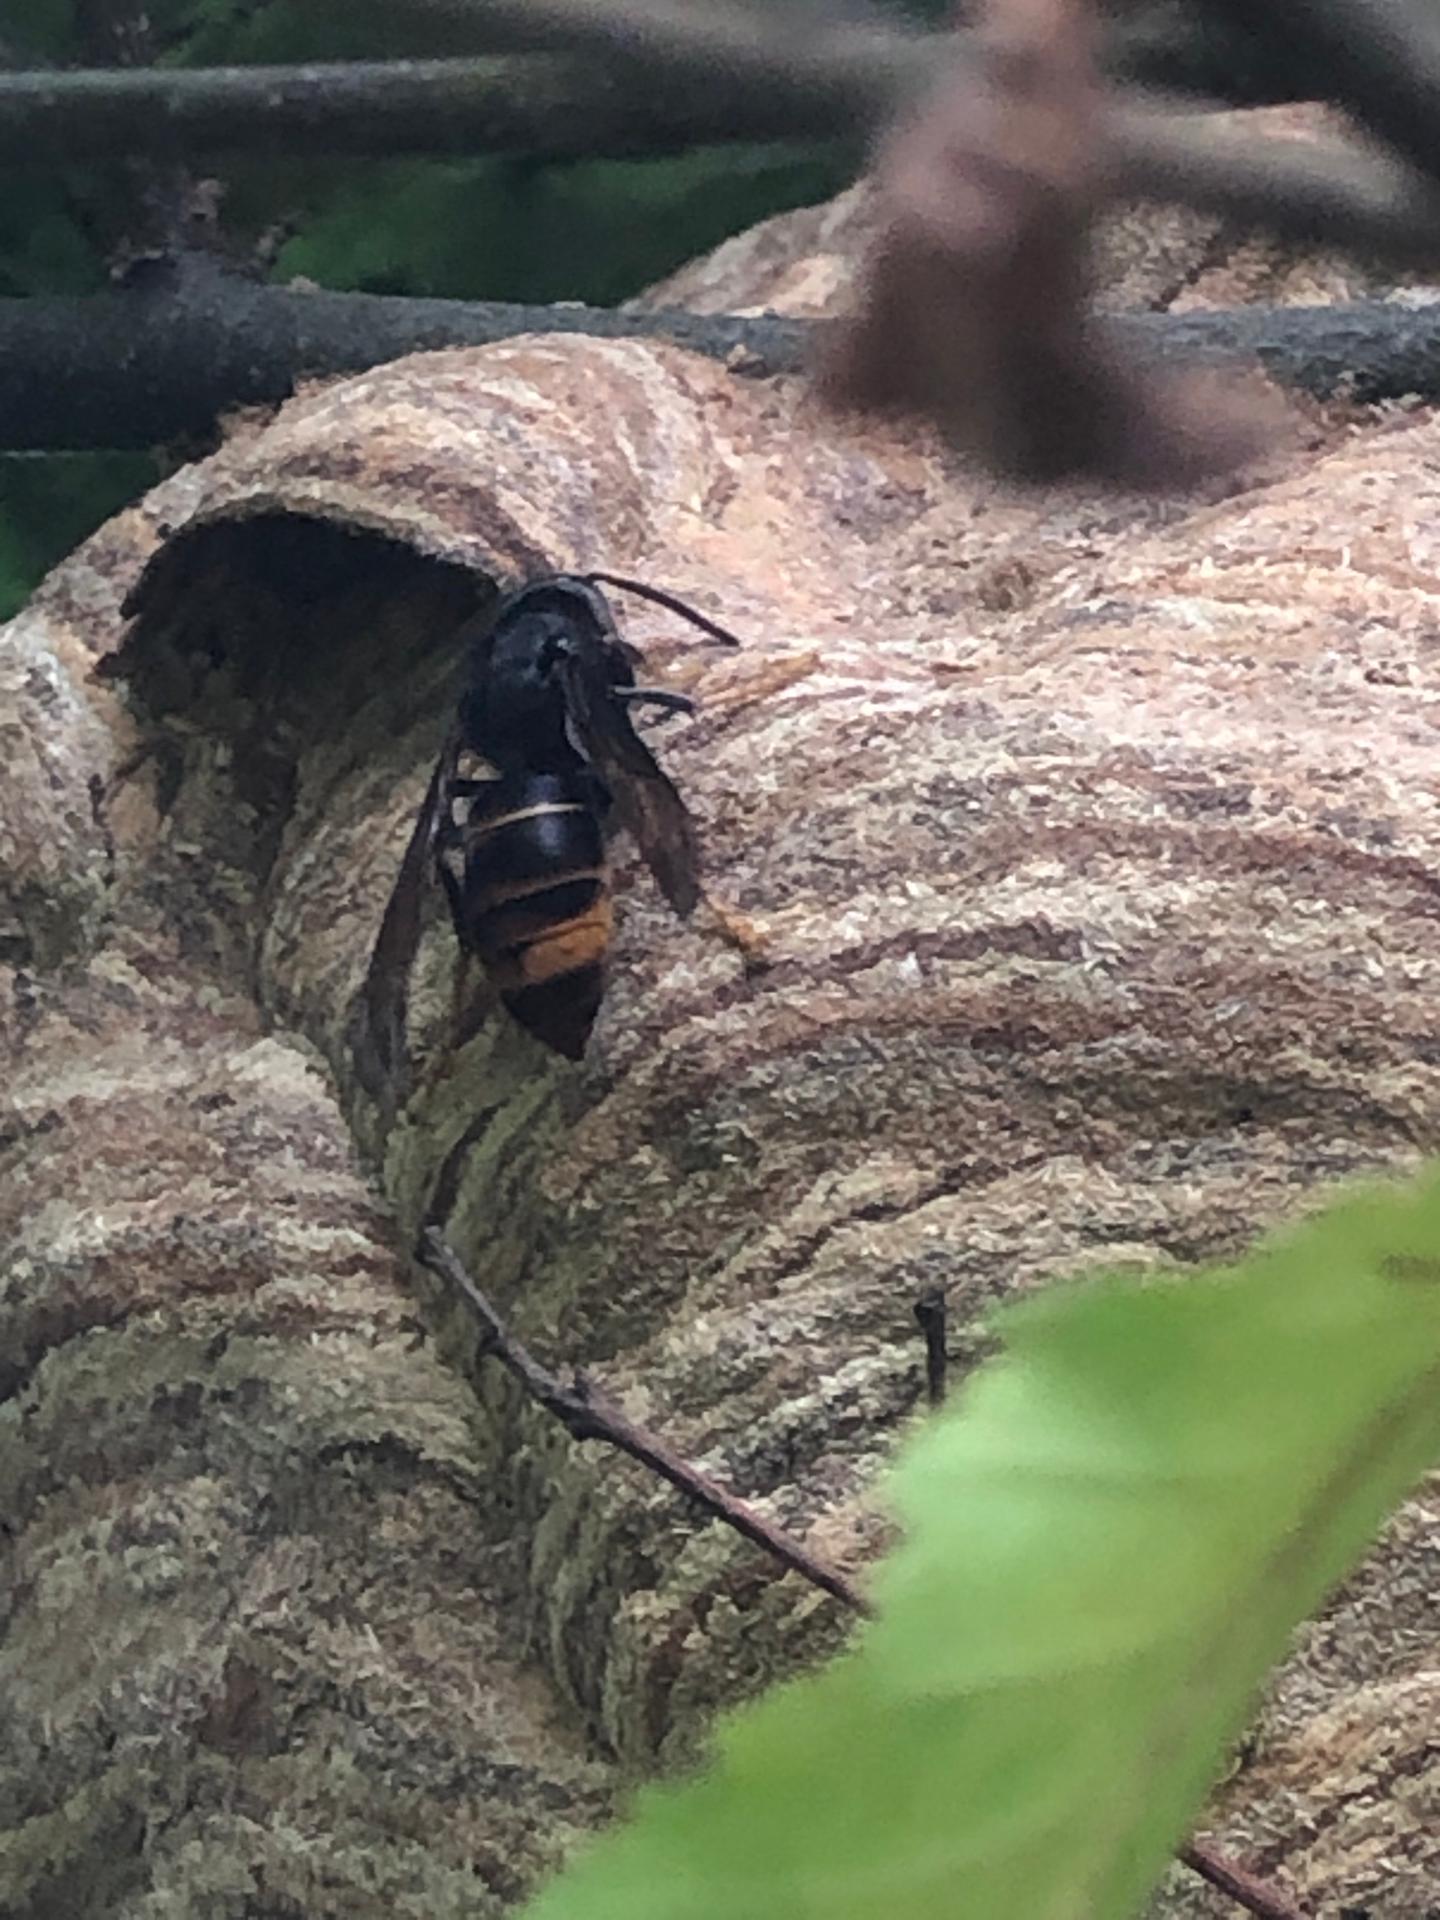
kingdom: Animalia
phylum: Arthropoda
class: Insecta
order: Hymenoptera
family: Vespidae
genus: Vespa
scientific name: Vespa velutina
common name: Asian hornet
